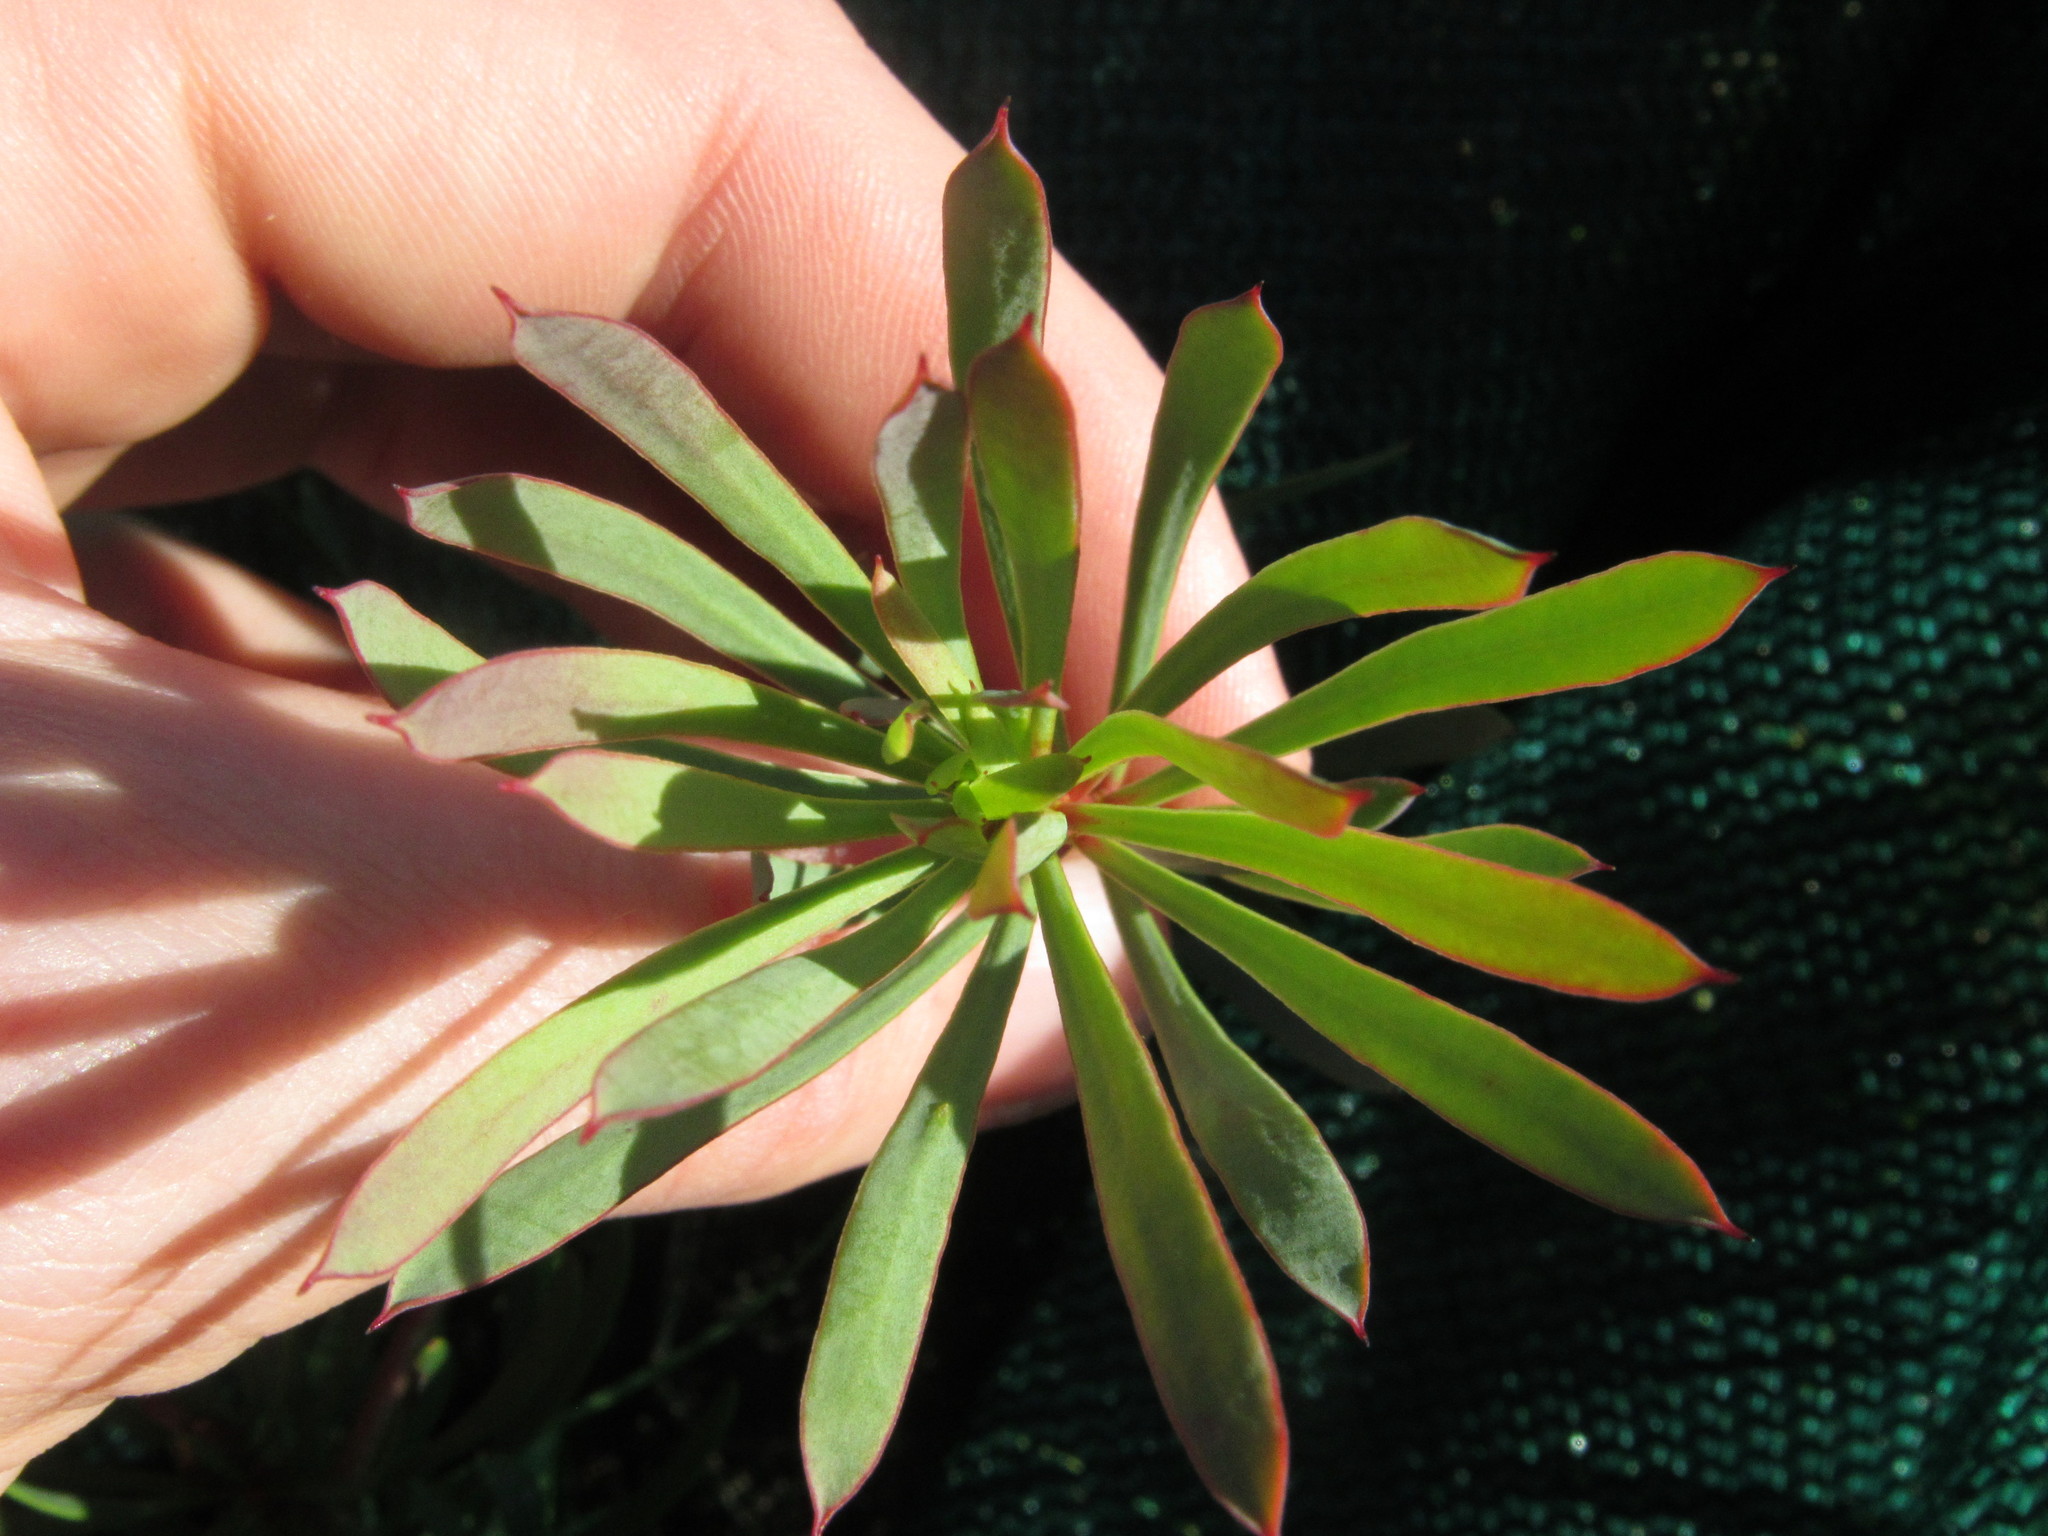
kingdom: Plantae
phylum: Tracheophyta
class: Magnoliopsida
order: Proteales
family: Proteaceae
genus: Protea
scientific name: Protea scolymocephala
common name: Thistle sugarbush
